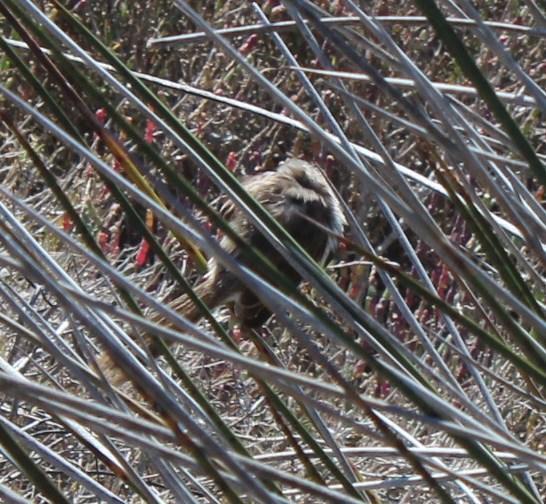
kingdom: Animalia
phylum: Chordata
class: Aves
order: Passeriformes
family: Cisticolidae
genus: Phragmacia
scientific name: Phragmacia substriata
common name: Namaqua warbler
